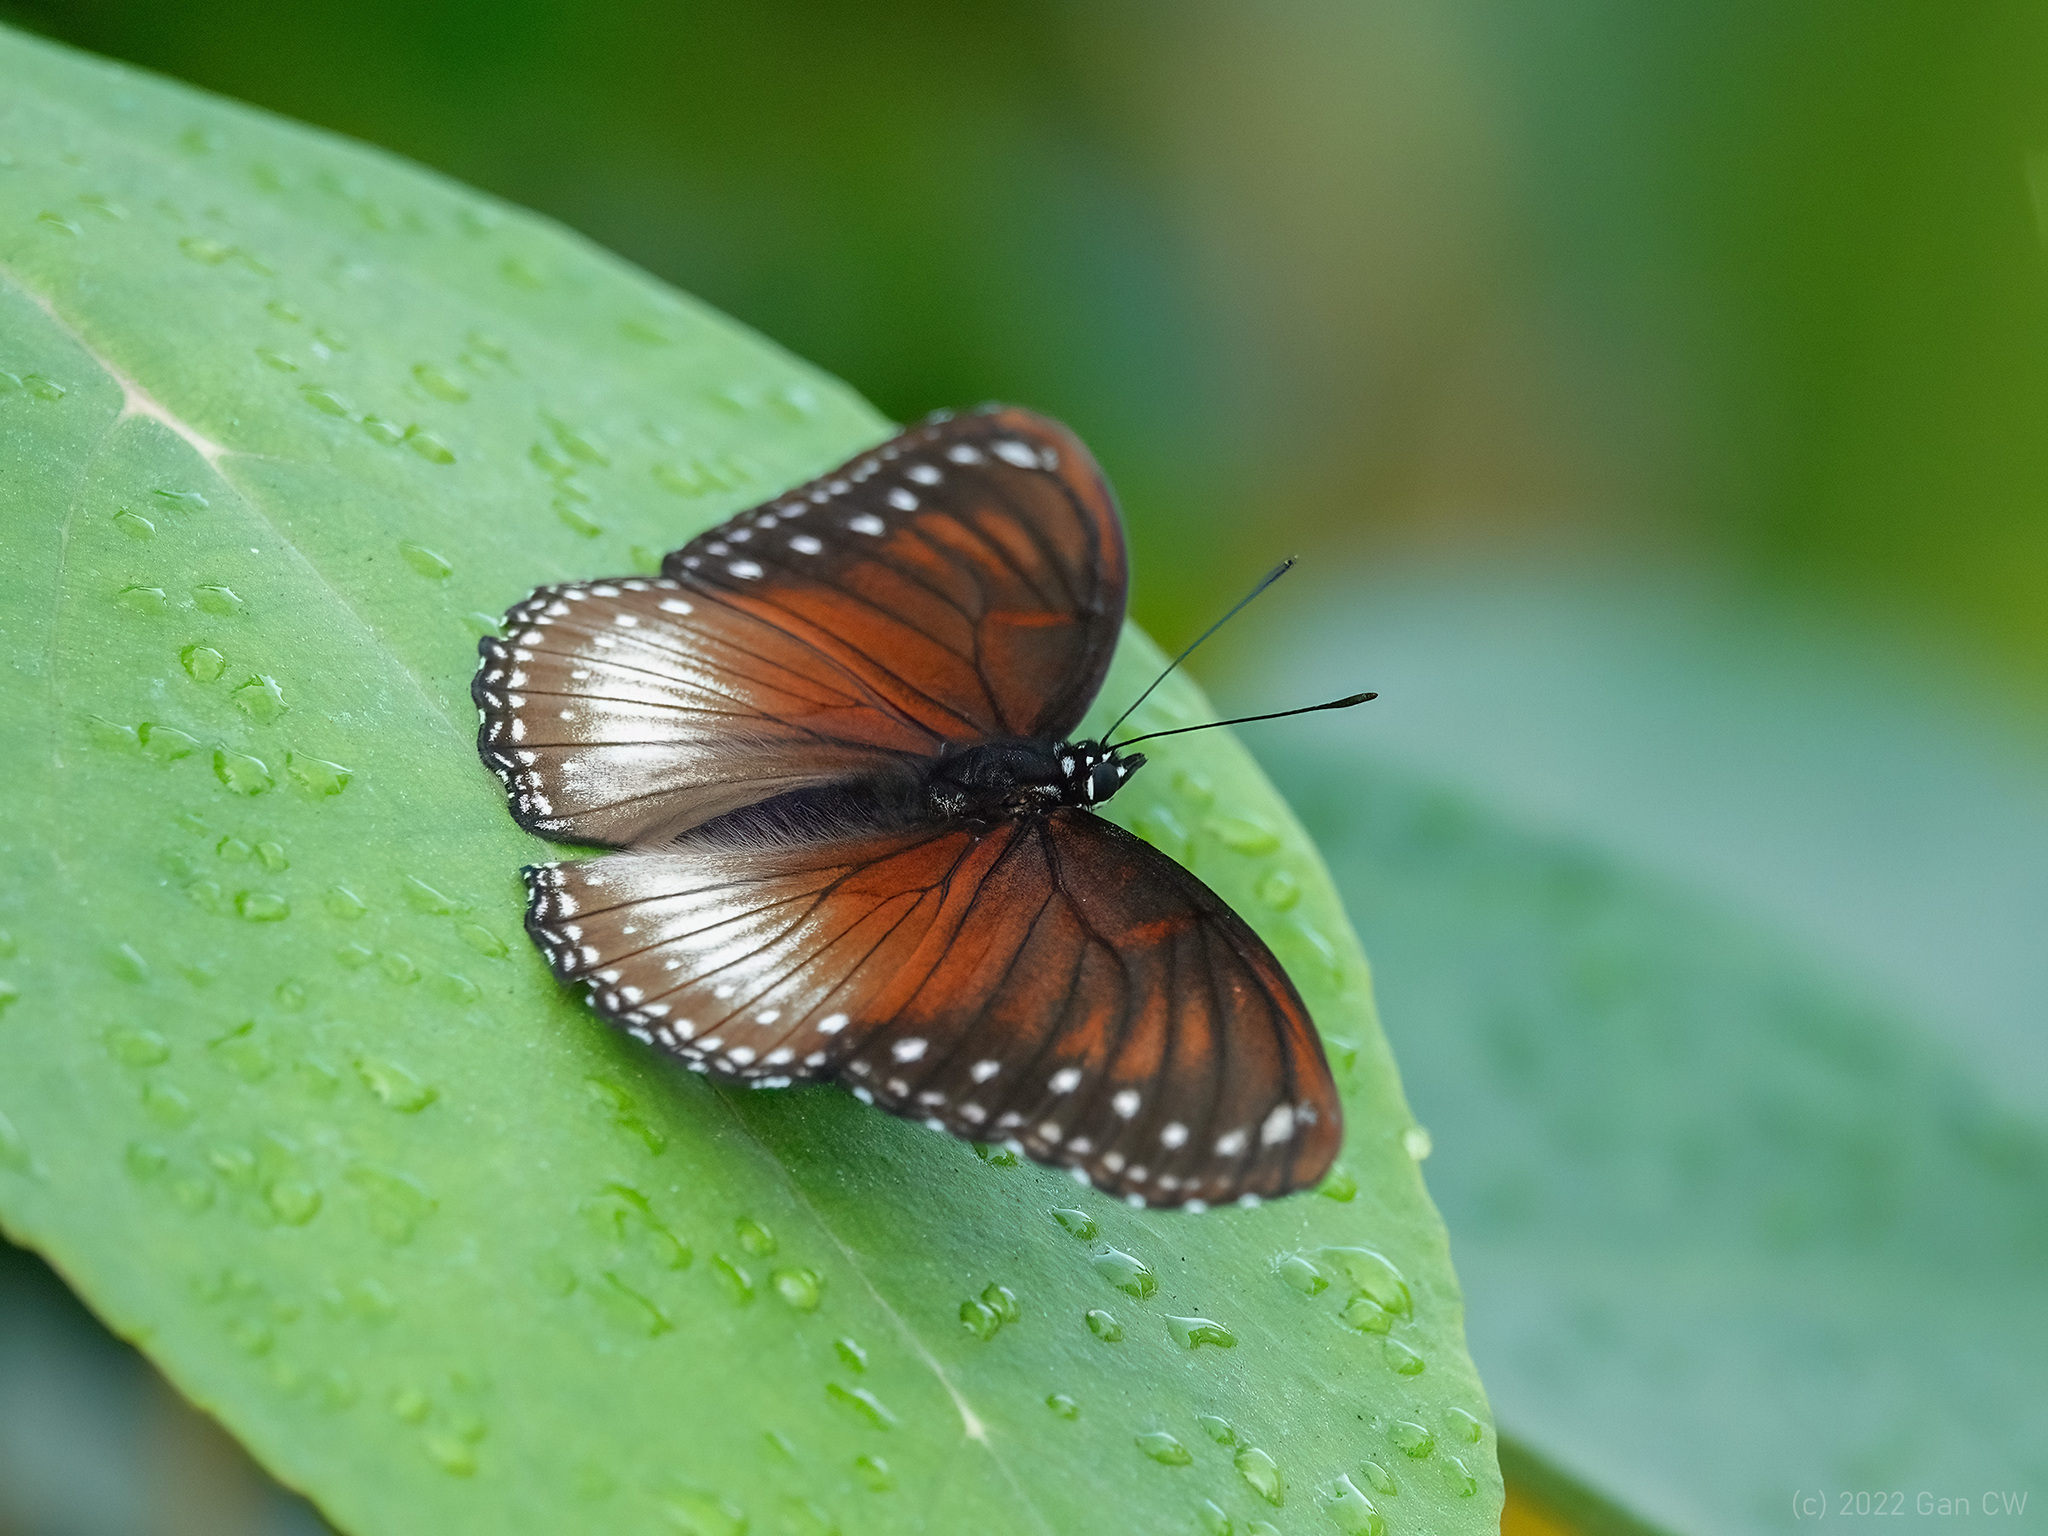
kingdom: Animalia
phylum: Arthropoda
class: Insecta
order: Lepidoptera
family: Nymphalidae
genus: Hypolimnas
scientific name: Hypolimnas anomala
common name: Malayan eggfly
